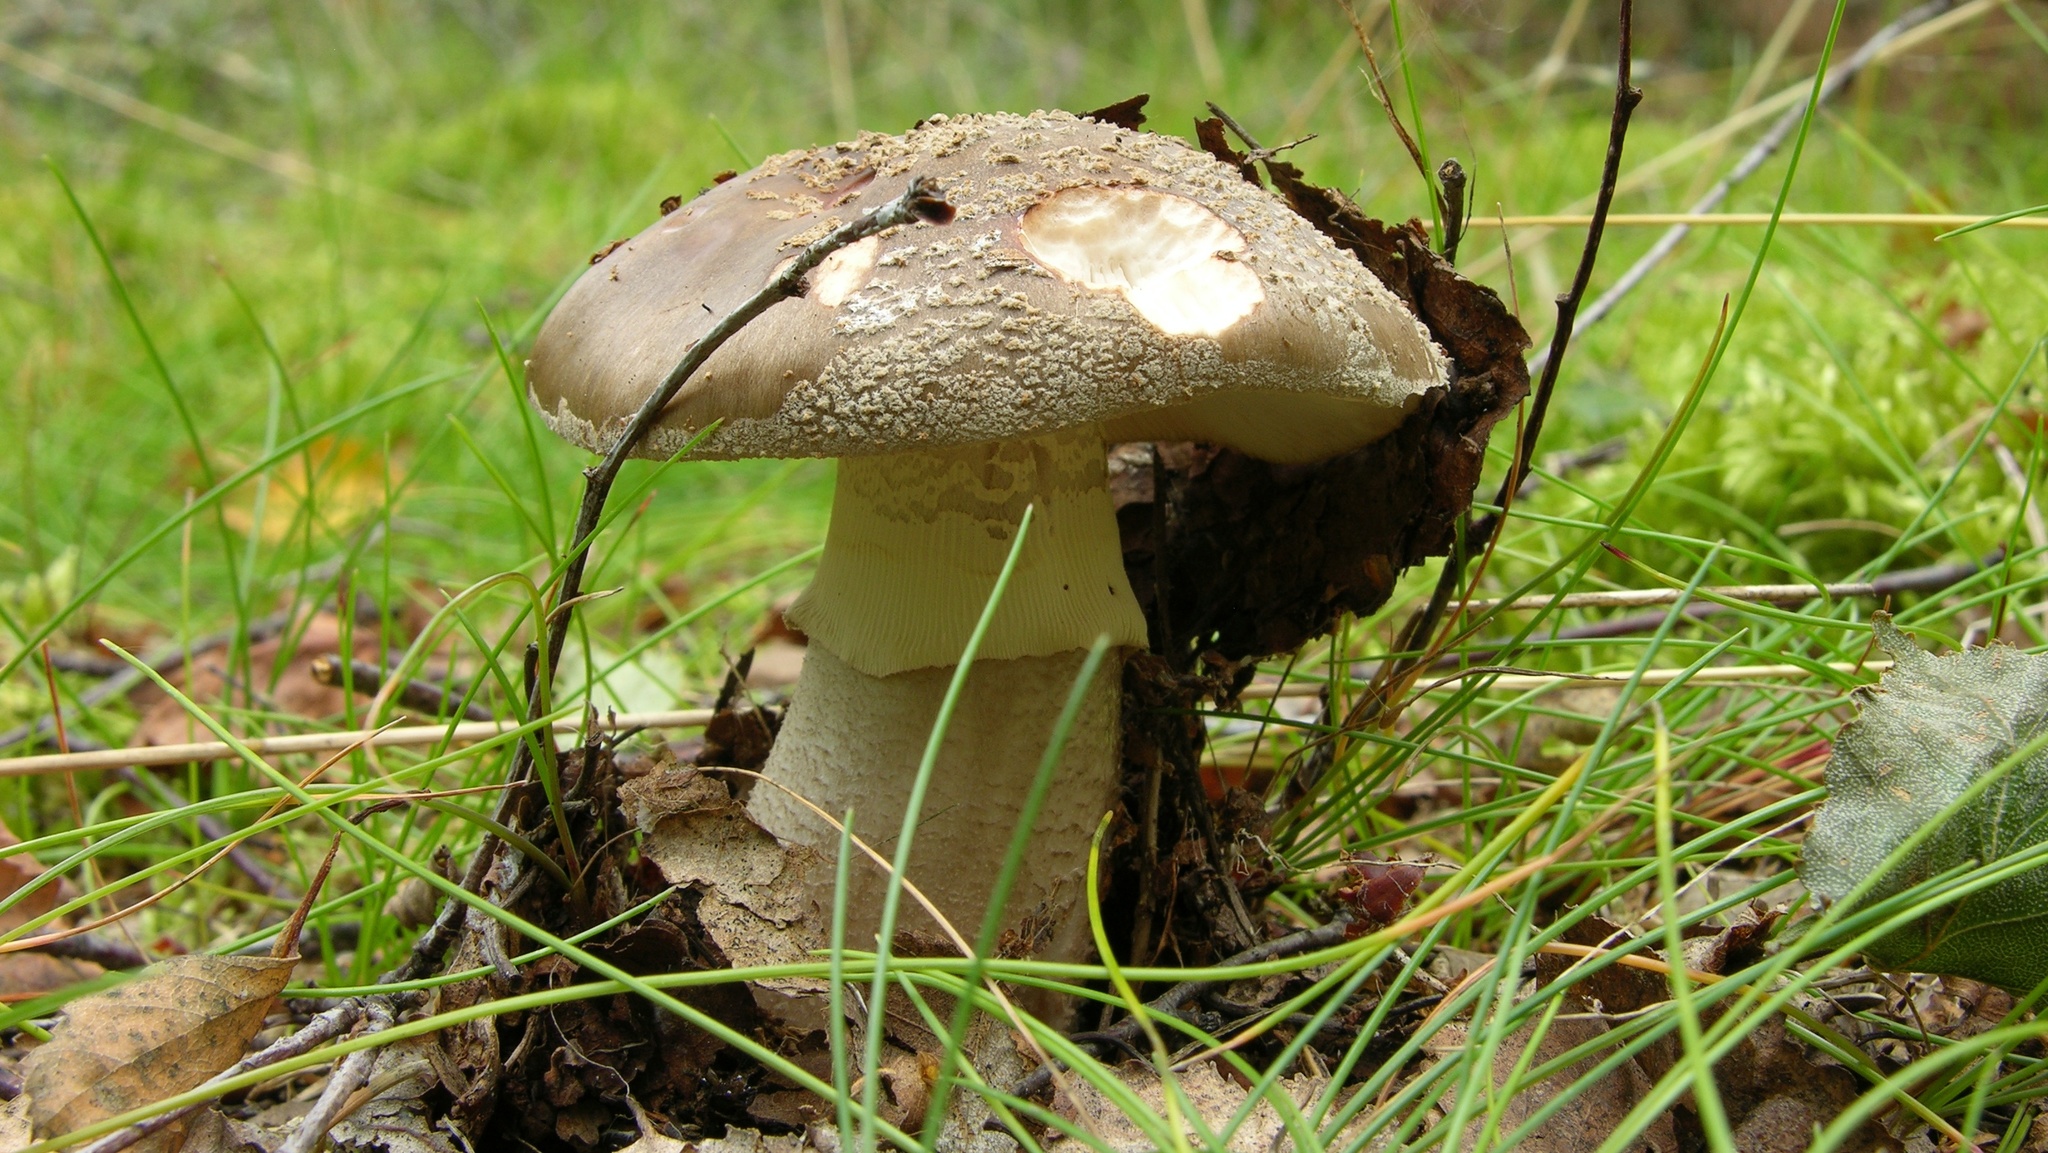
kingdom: Fungi
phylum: Basidiomycota
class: Agaricomycetes
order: Agaricales
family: Amanitaceae
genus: Amanita
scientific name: Amanita rubescens
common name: Blusher
